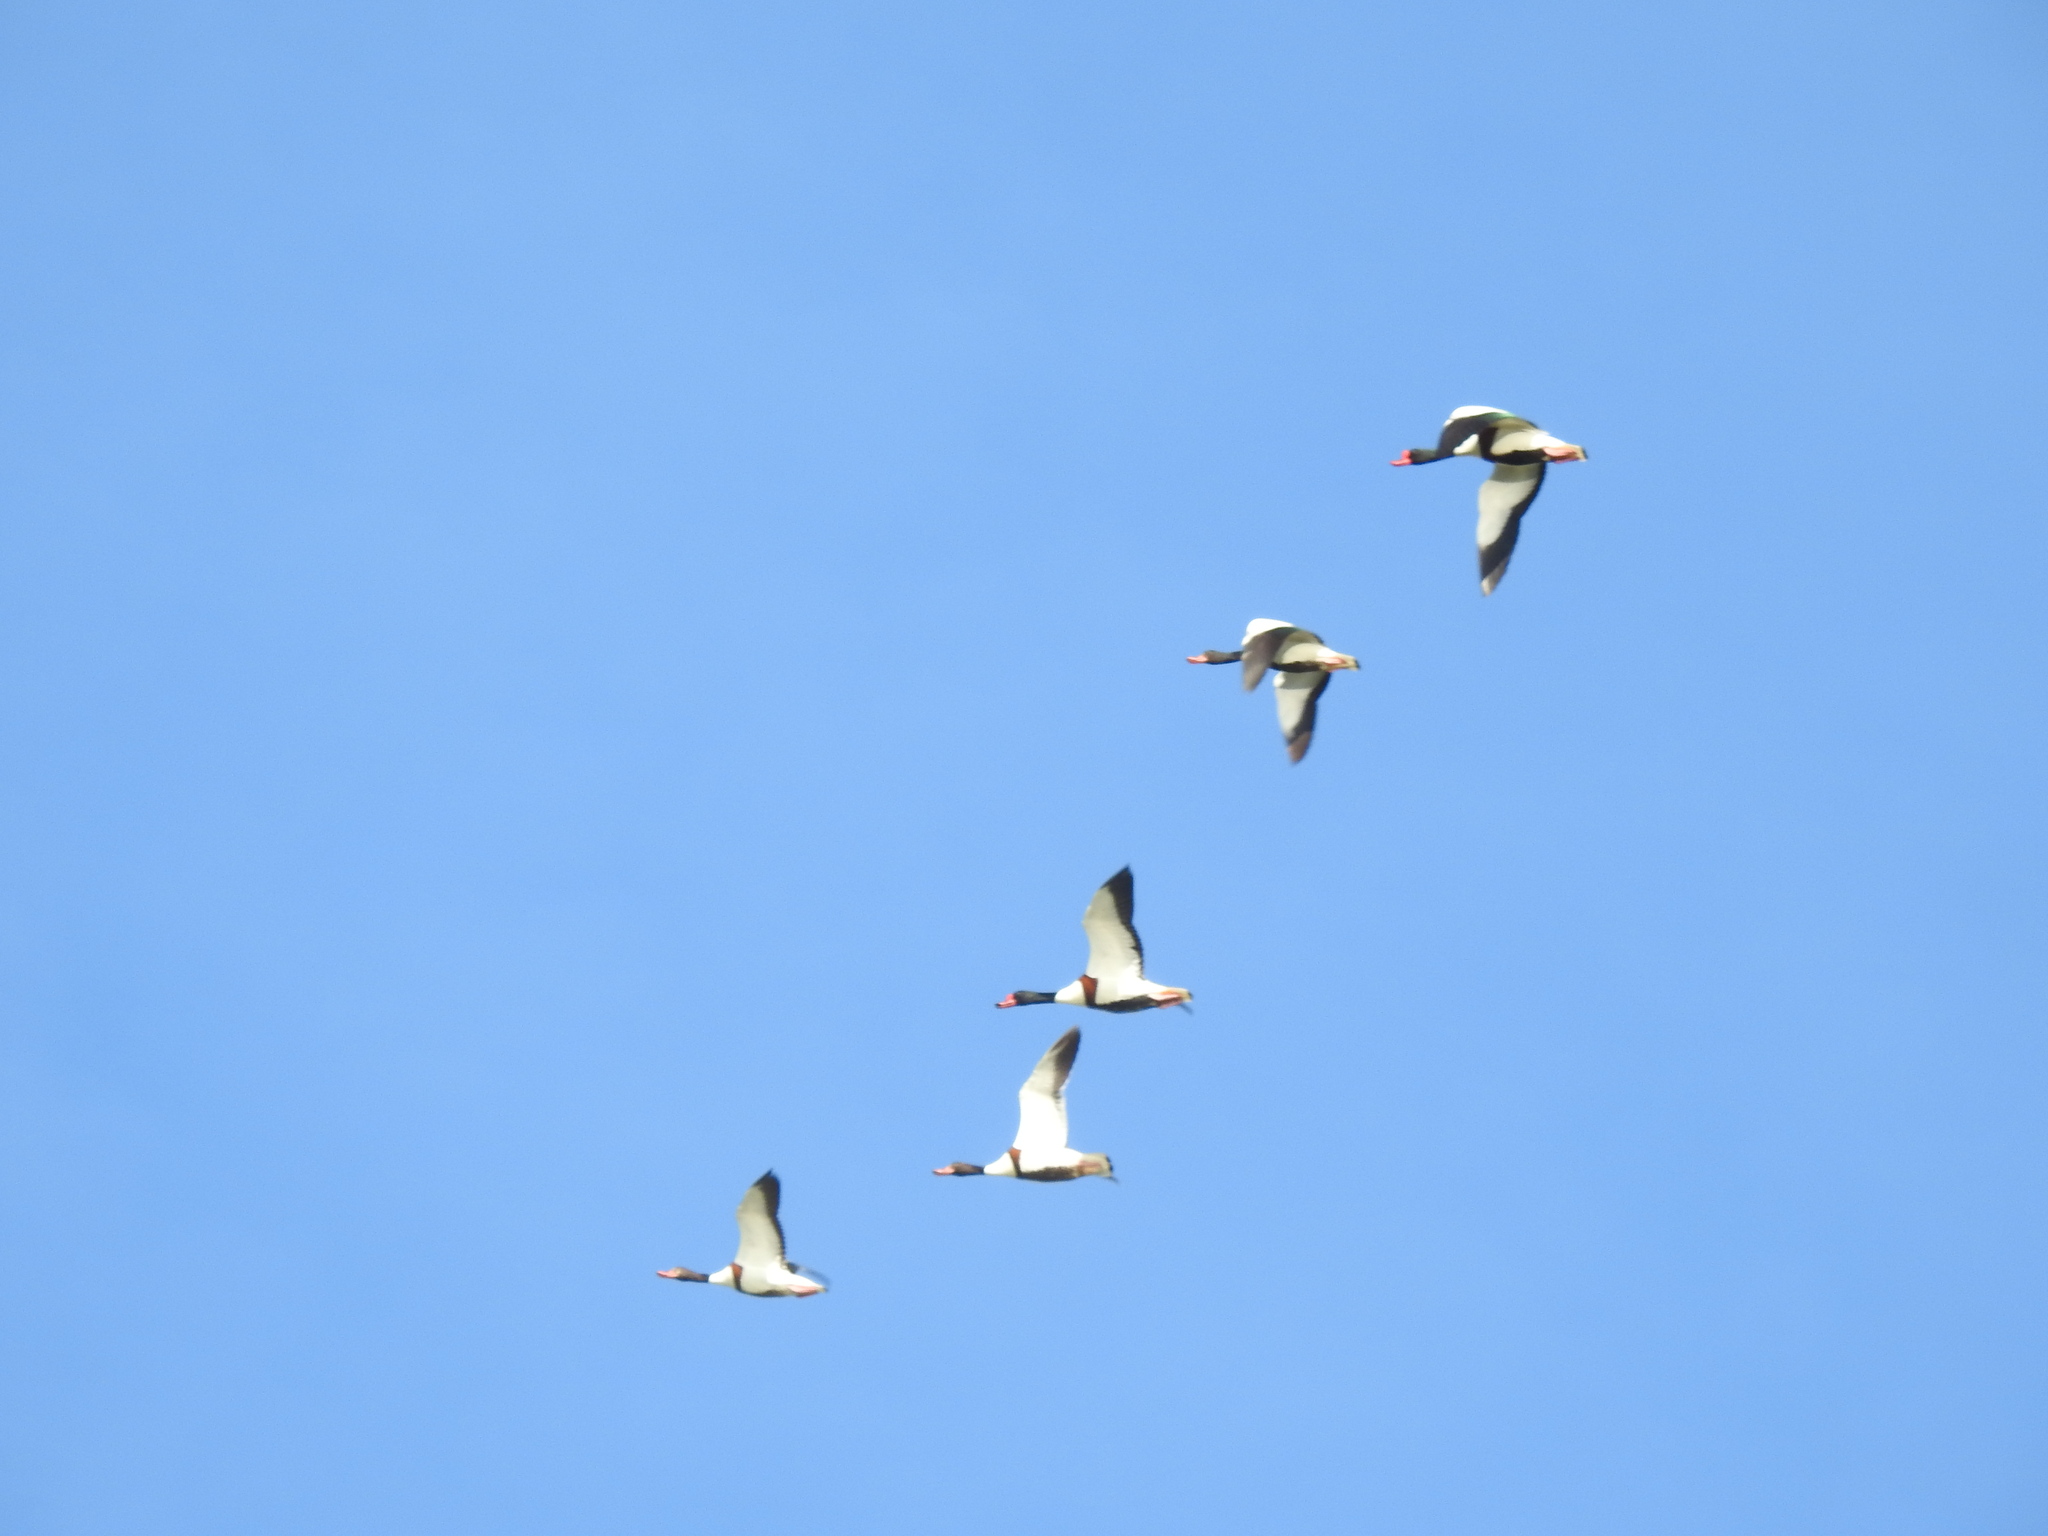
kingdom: Animalia
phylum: Chordata
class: Aves
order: Anseriformes
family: Anatidae
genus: Tadorna
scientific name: Tadorna tadorna
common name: Common shelduck
